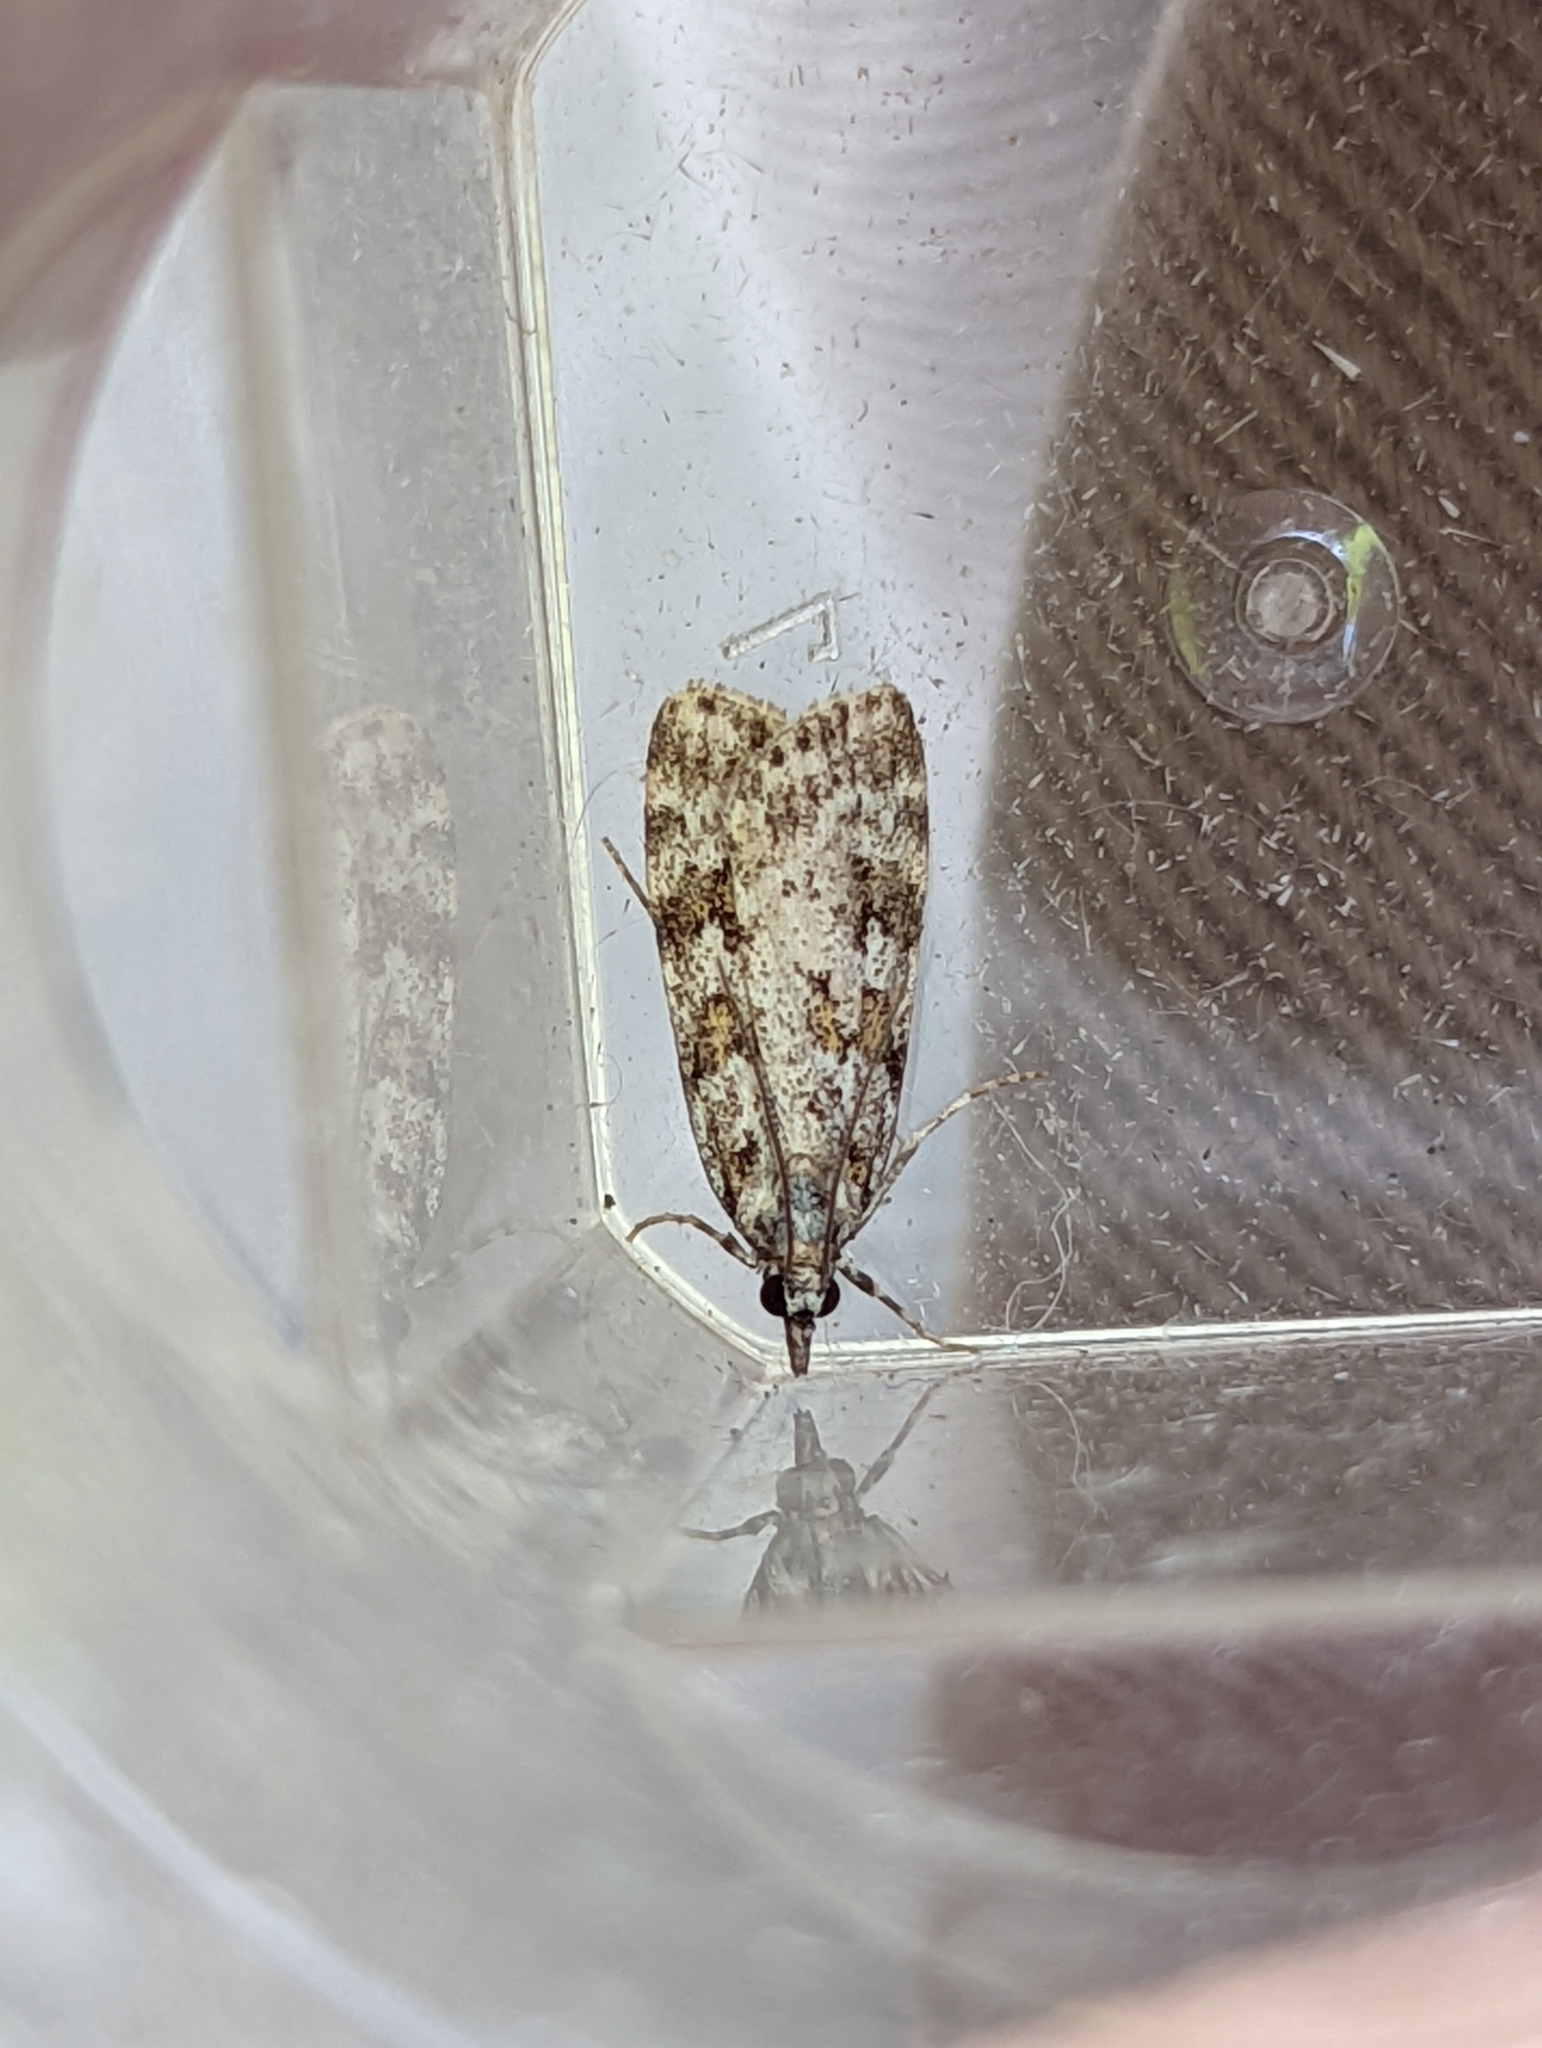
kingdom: Animalia
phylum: Arthropoda
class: Insecta
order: Lepidoptera
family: Crambidae
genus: Scoparia
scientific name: Scoparia pyralella
